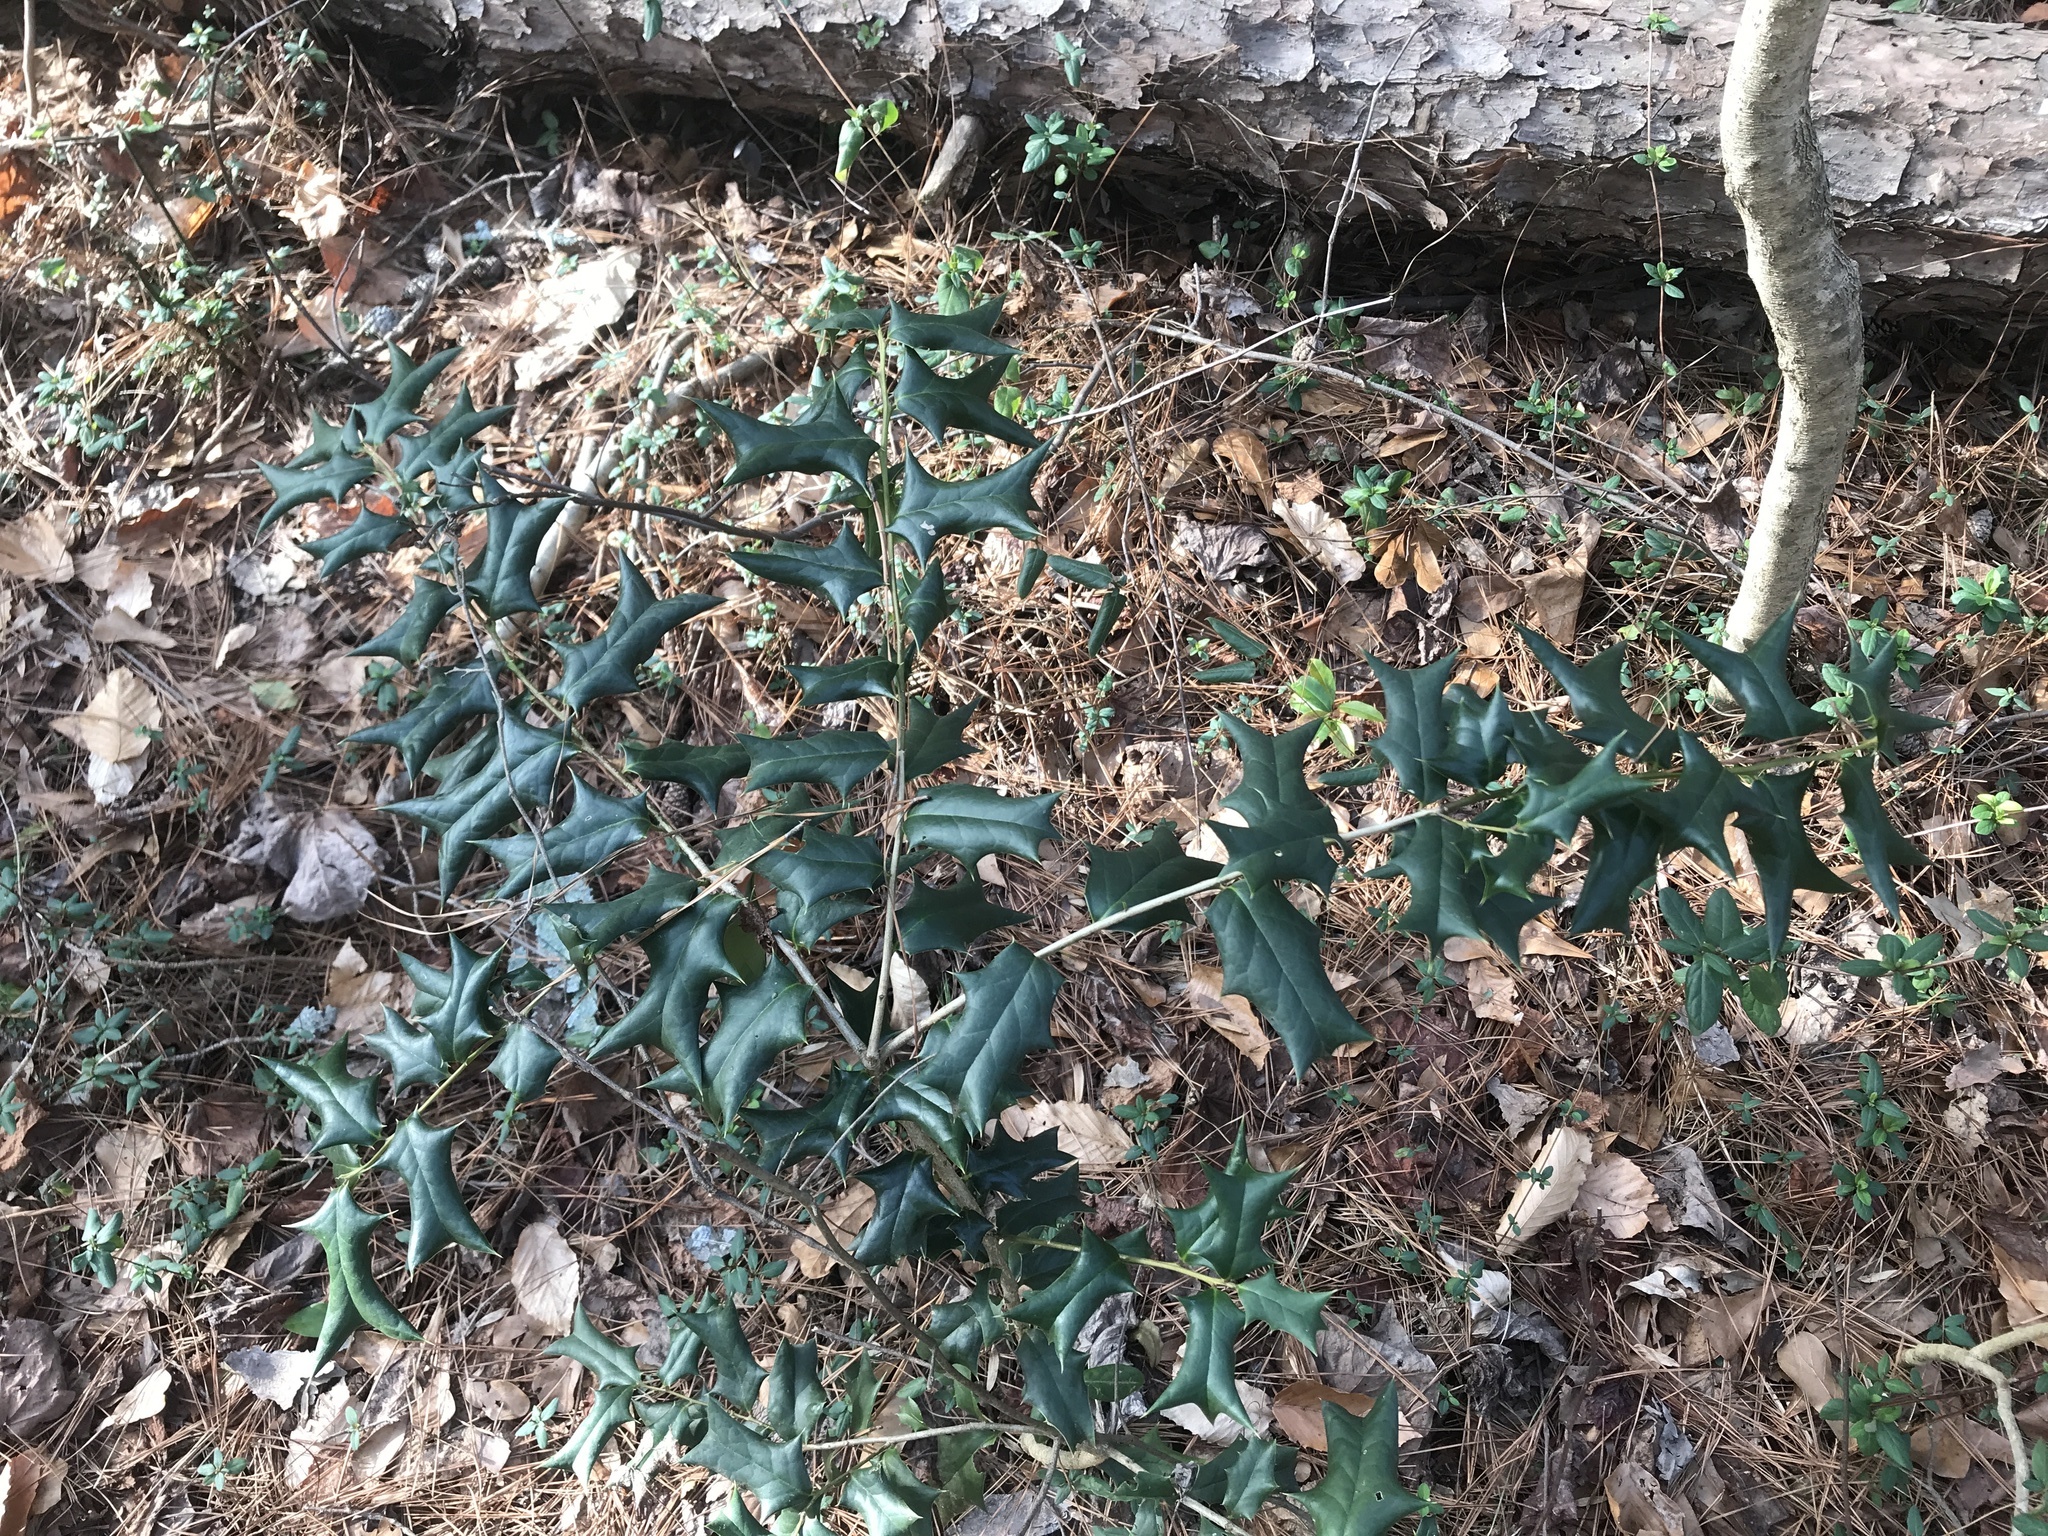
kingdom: Plantae
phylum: Tracheophyta
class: Magnoliopsida
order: Aquifoliales
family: Aquifoliaceae
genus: Ilex
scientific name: Ilex cornuta
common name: Chinese holly
